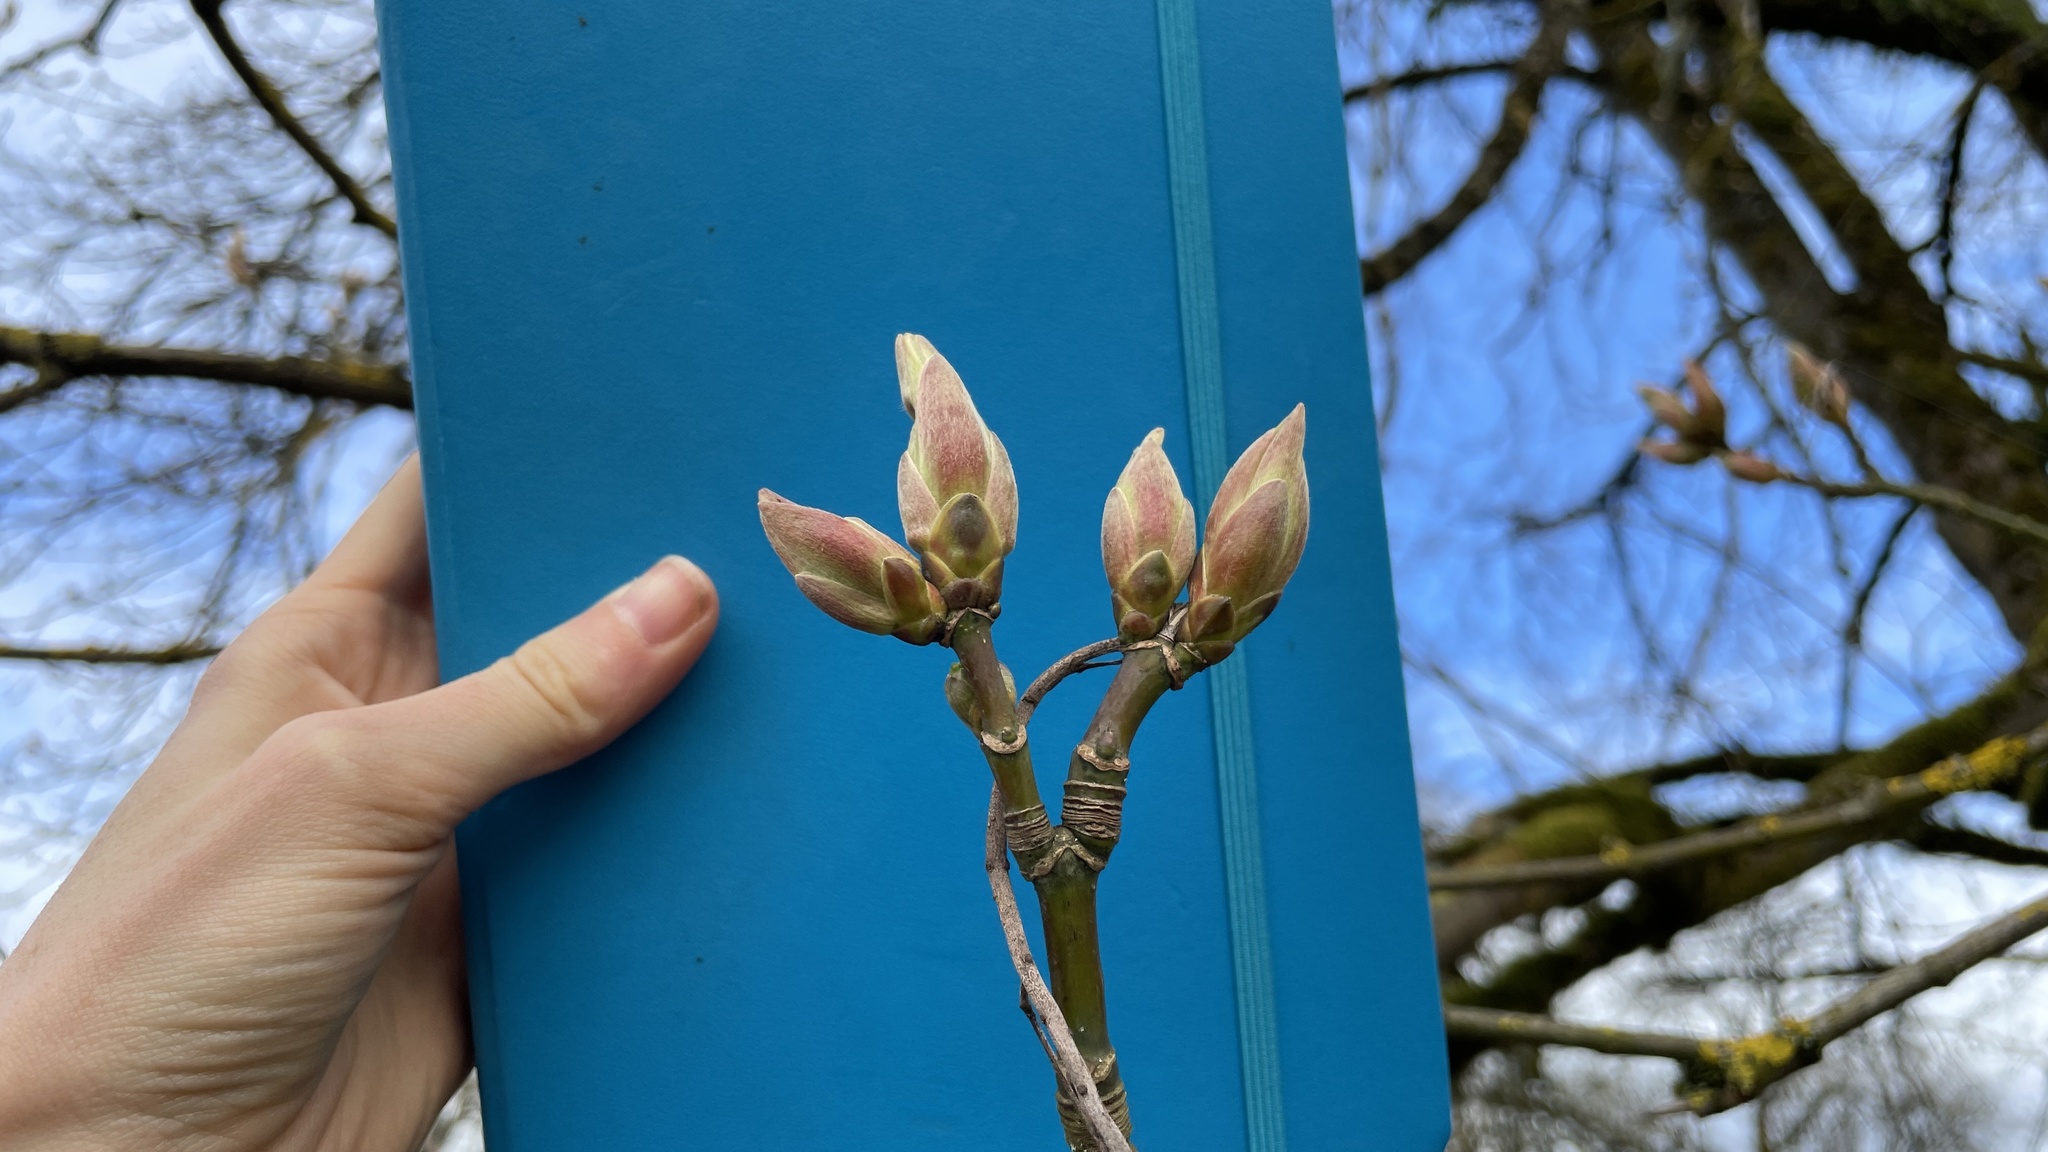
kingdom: Plantae
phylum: Tracheophyta
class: Magnoliopsida
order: Sapindales
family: Sapindaceae
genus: Acer
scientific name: Acer macrophyllum
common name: Oregon maple
